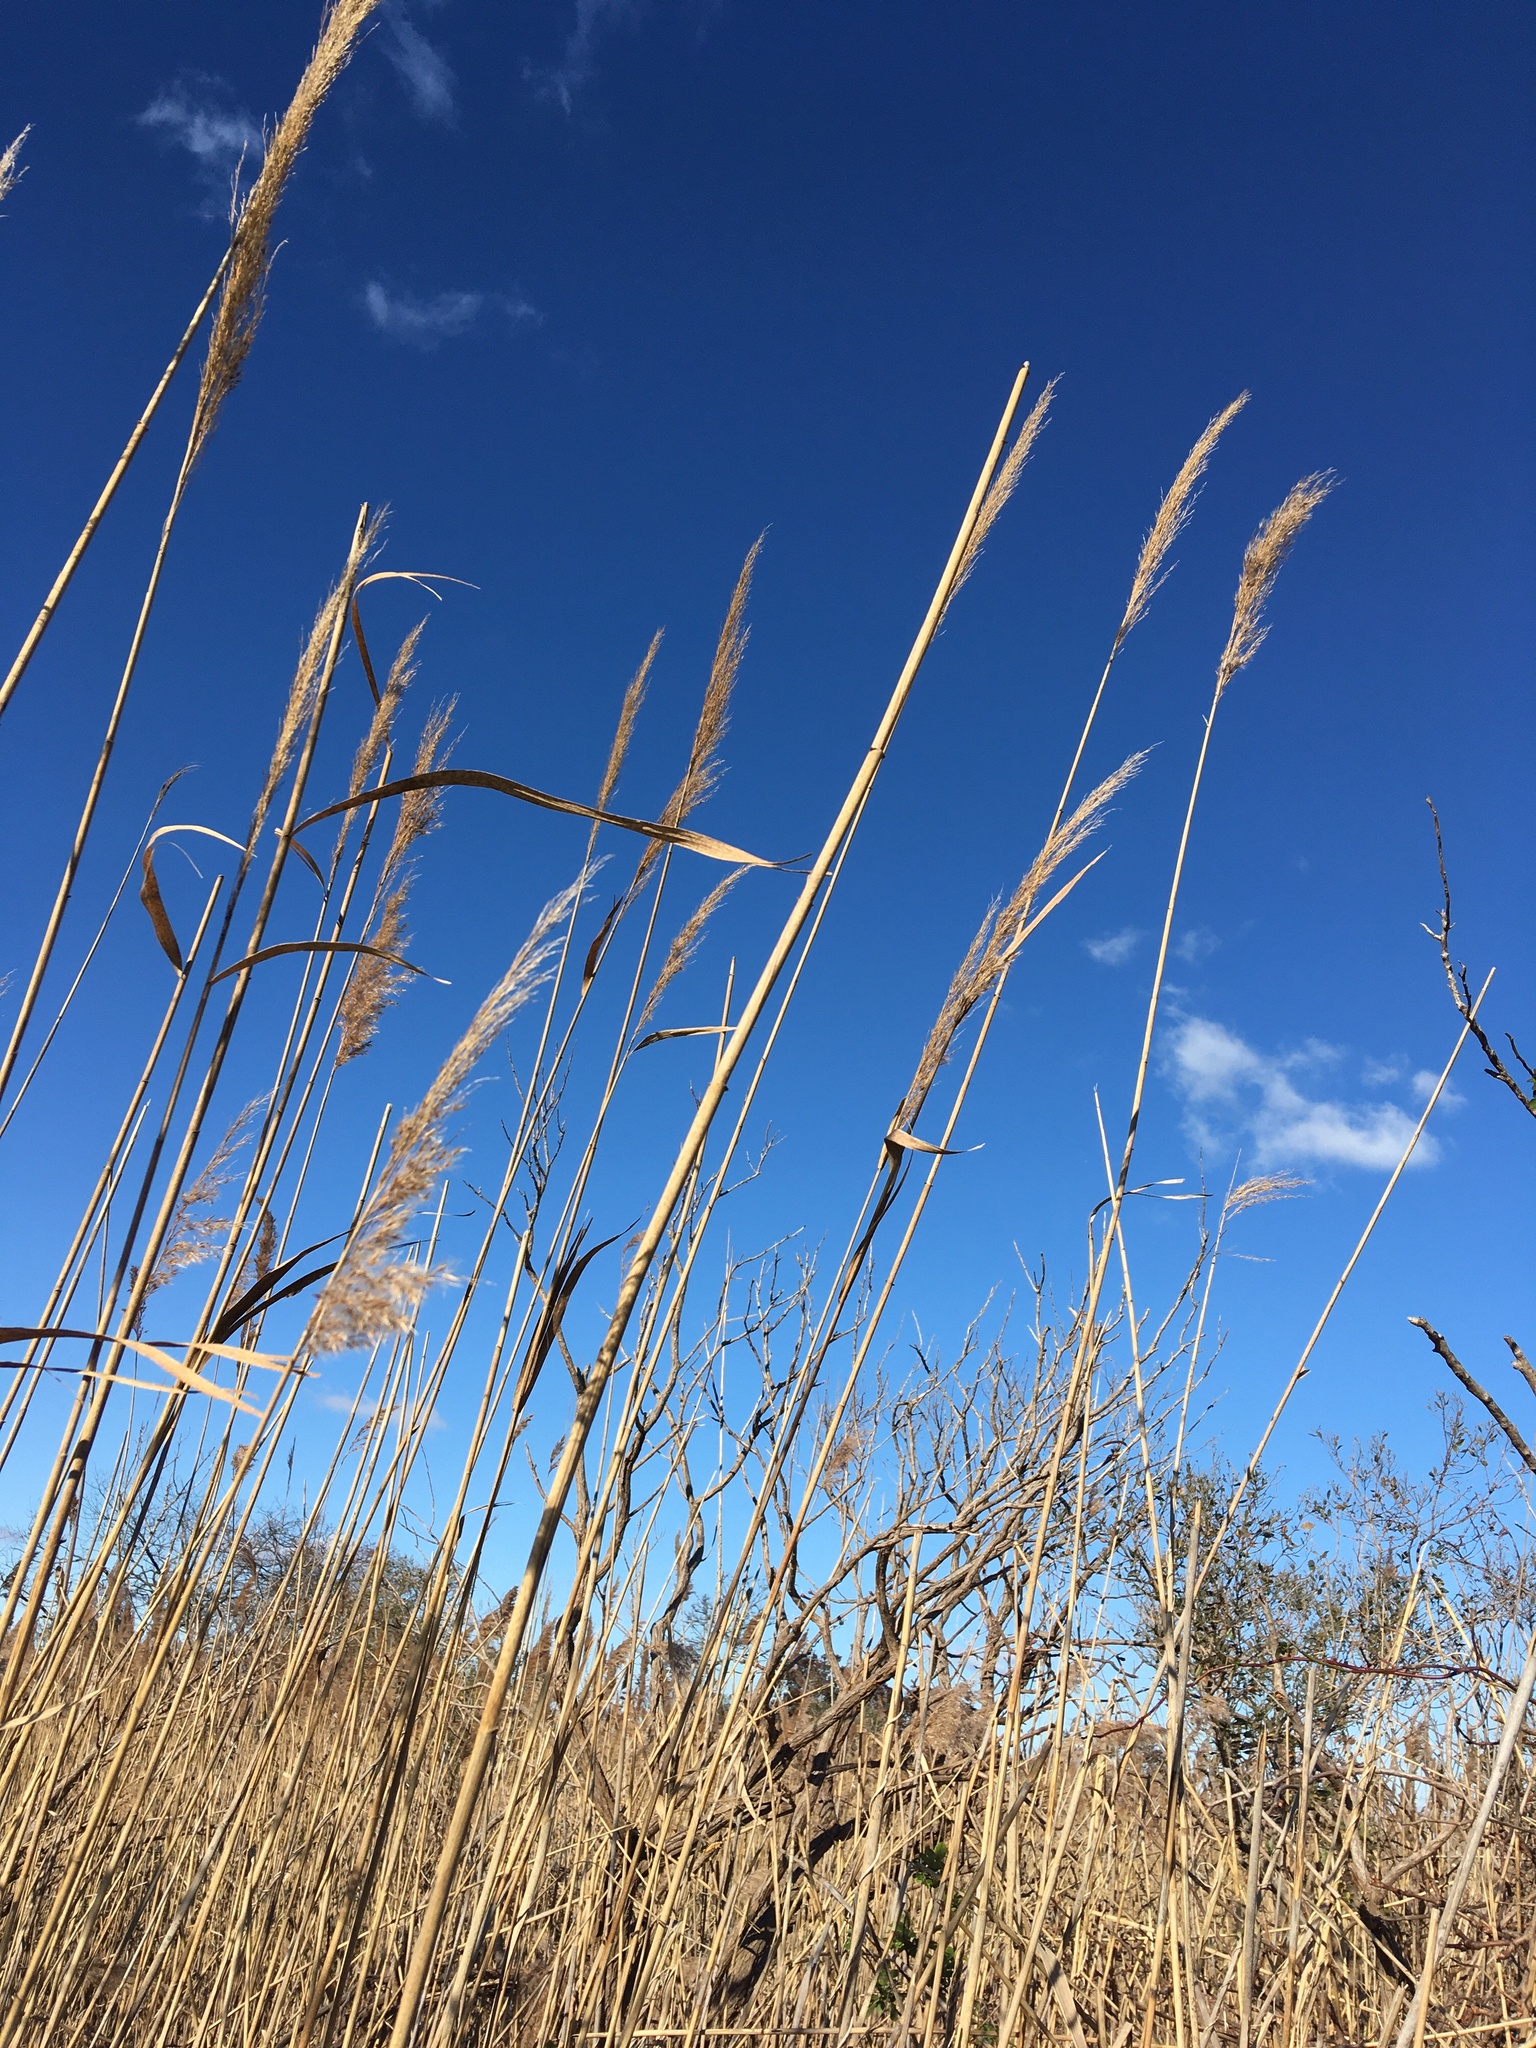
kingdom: Plantae
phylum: Tracheophyta
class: Liliopsida
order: Poales
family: Poaceae
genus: Phragmites
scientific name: Phragmites australis
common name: Common reed
